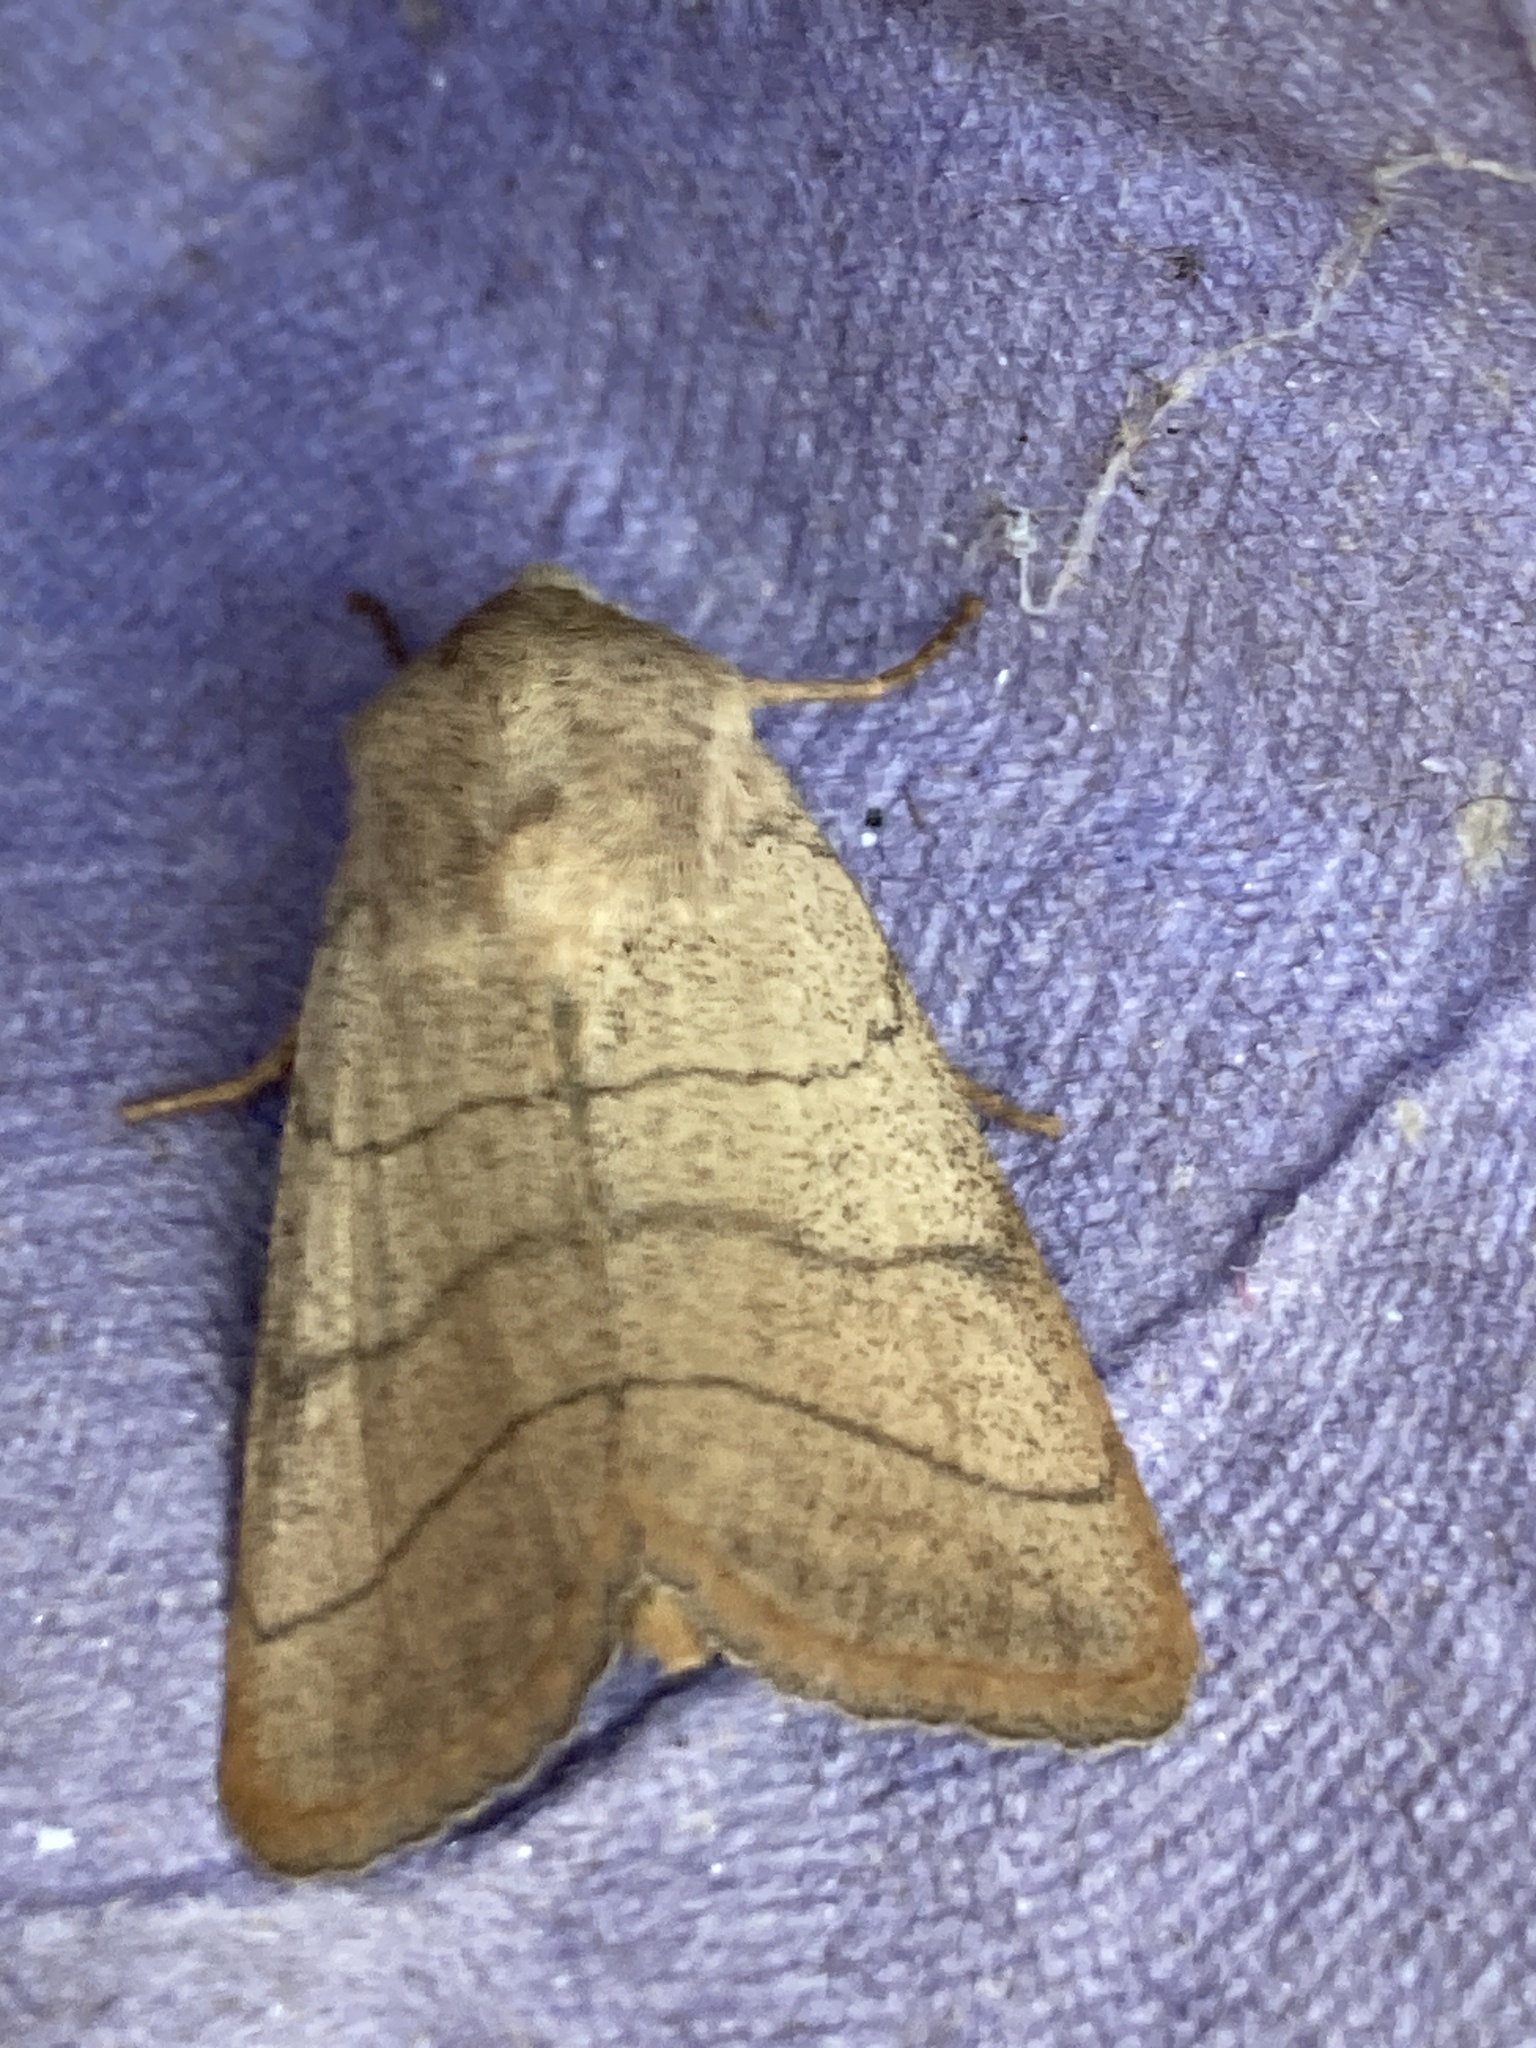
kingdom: Animalia
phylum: Arthropoda
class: Insecta
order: Lepidoptera
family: Noctuidae
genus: Charanyca
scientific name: Charanyca trigrammica
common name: Treble lines
